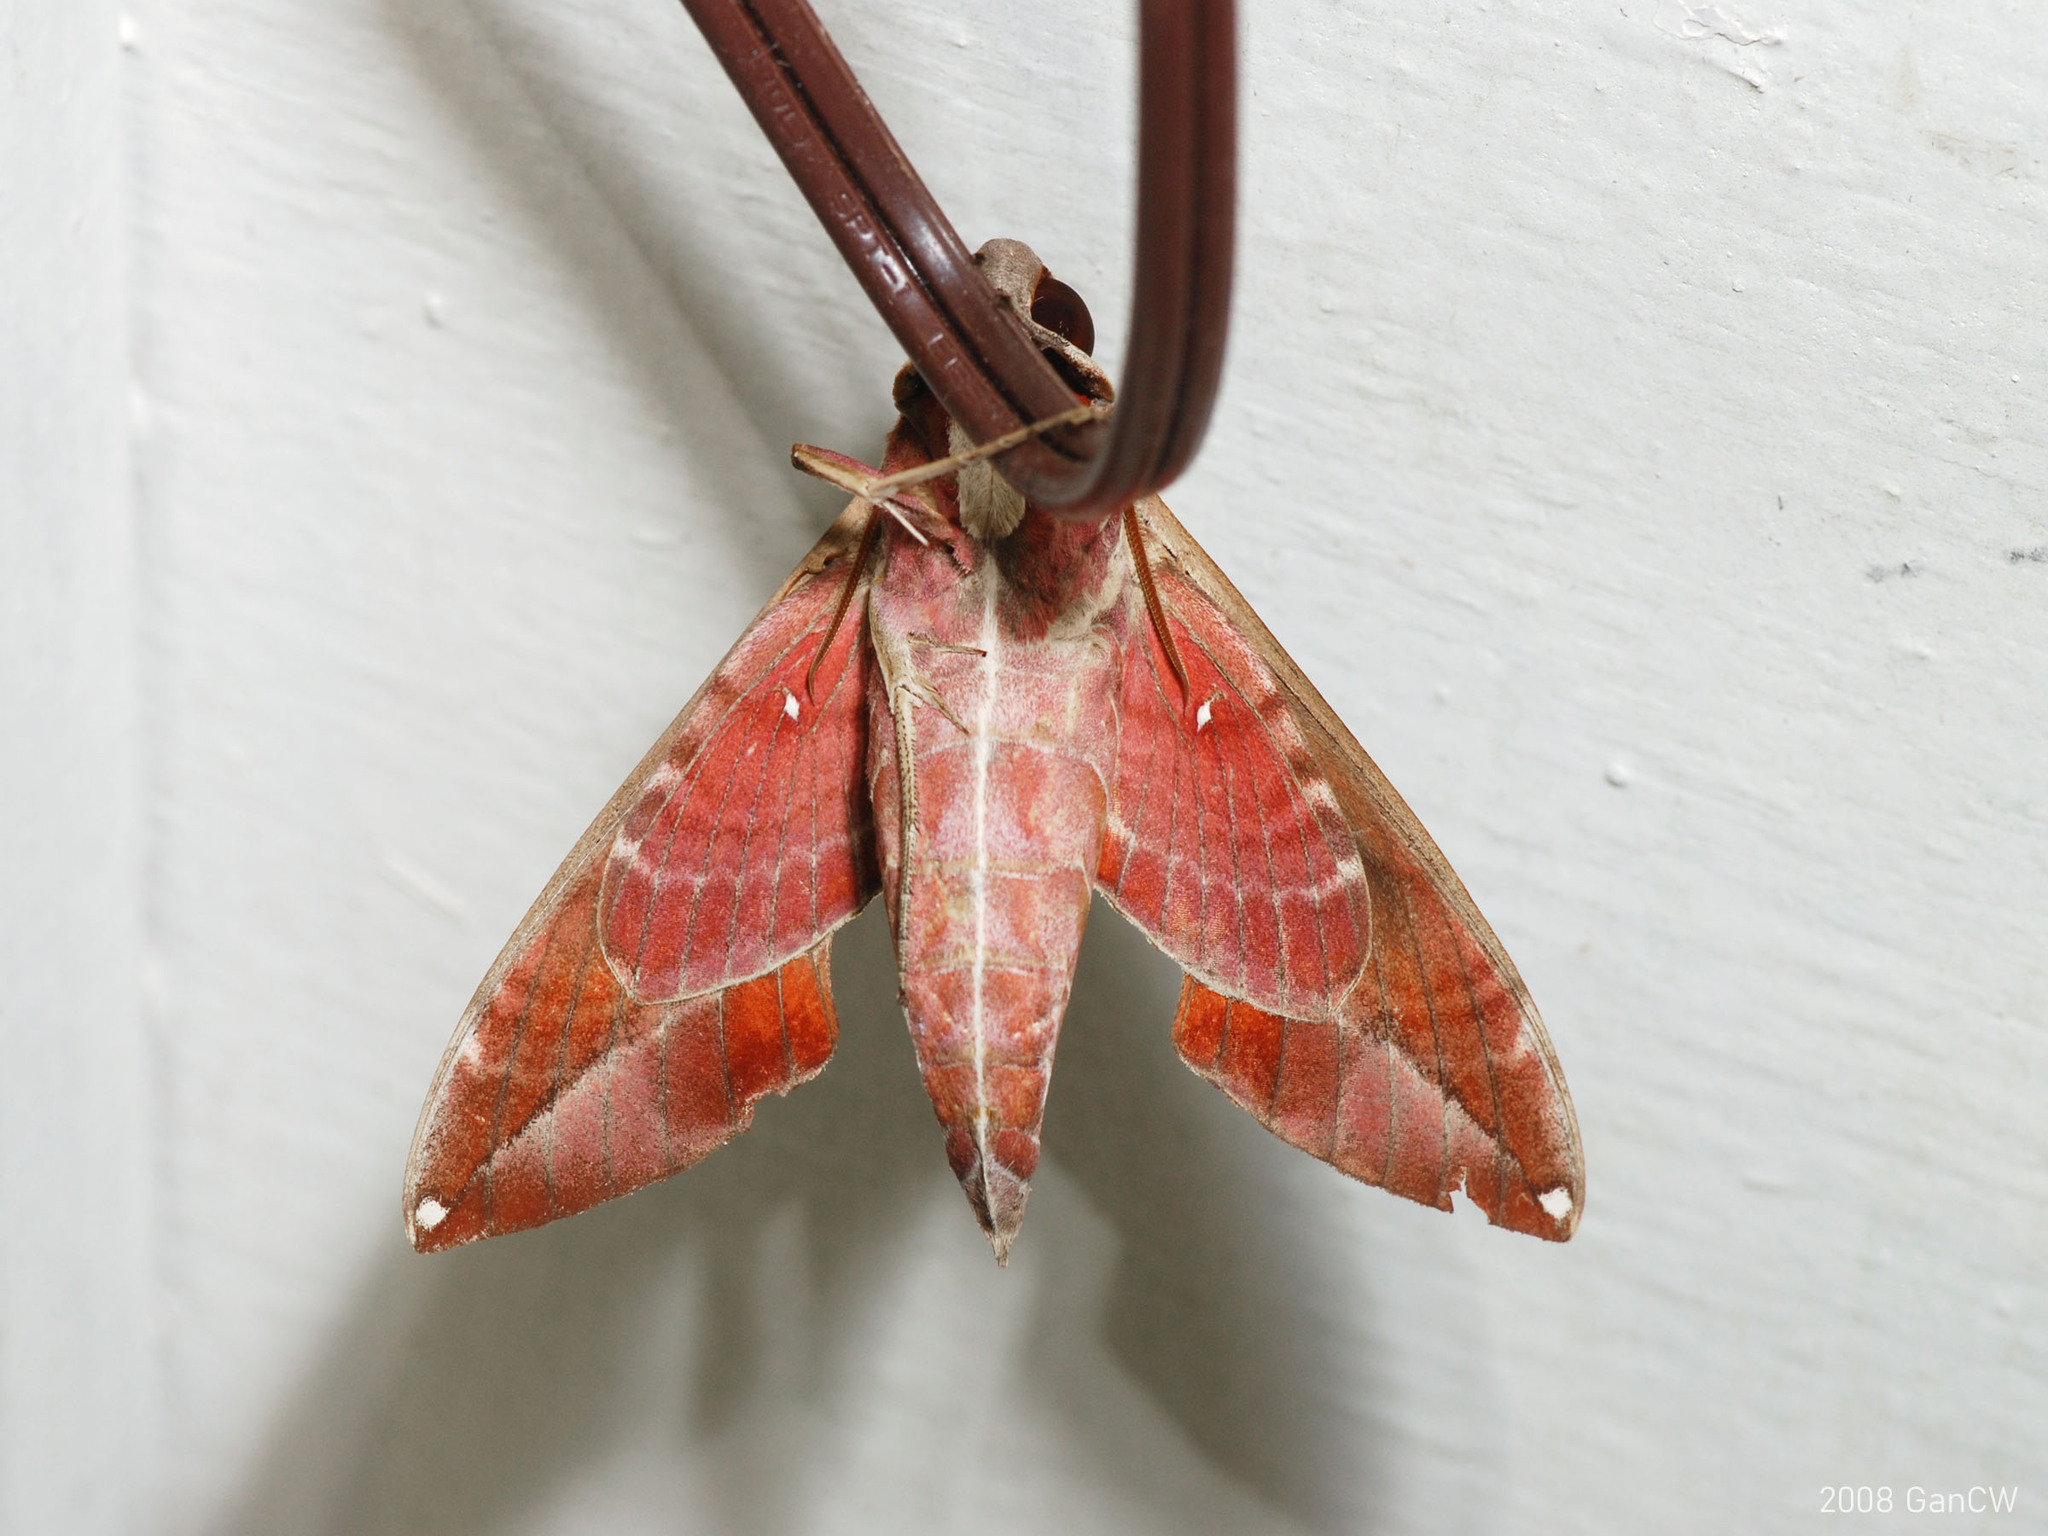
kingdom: Animalia
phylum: Arthropoda
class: Insecta
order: Lepidoptera
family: Sphingidae
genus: Daphnis
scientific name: Daphnis hypothous
